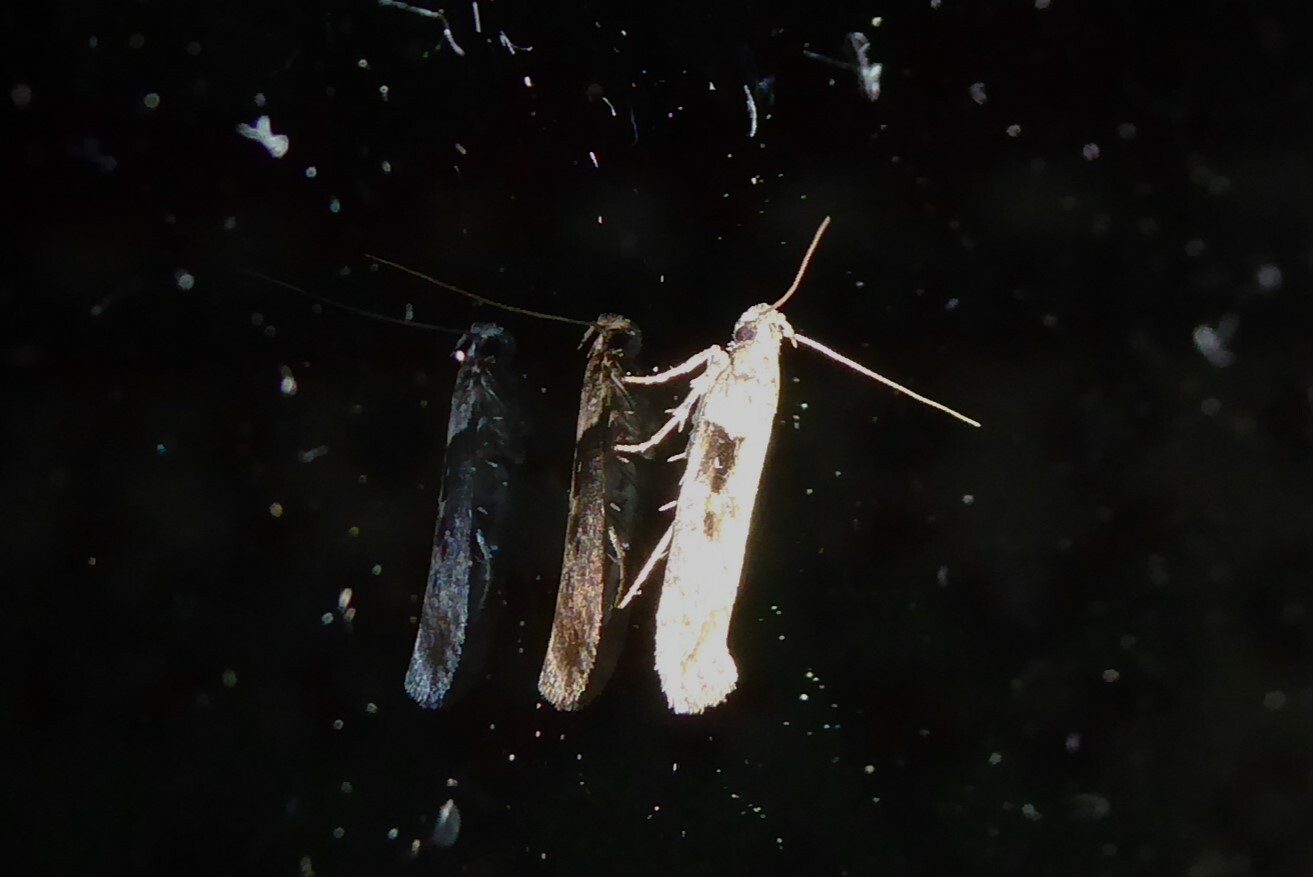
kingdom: Animalia
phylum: Arthropoda
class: Insecta
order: Lepidoptera
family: Gelechiidae
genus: Symmetrischema
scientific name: Symmetrischema tangolias
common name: Moth
